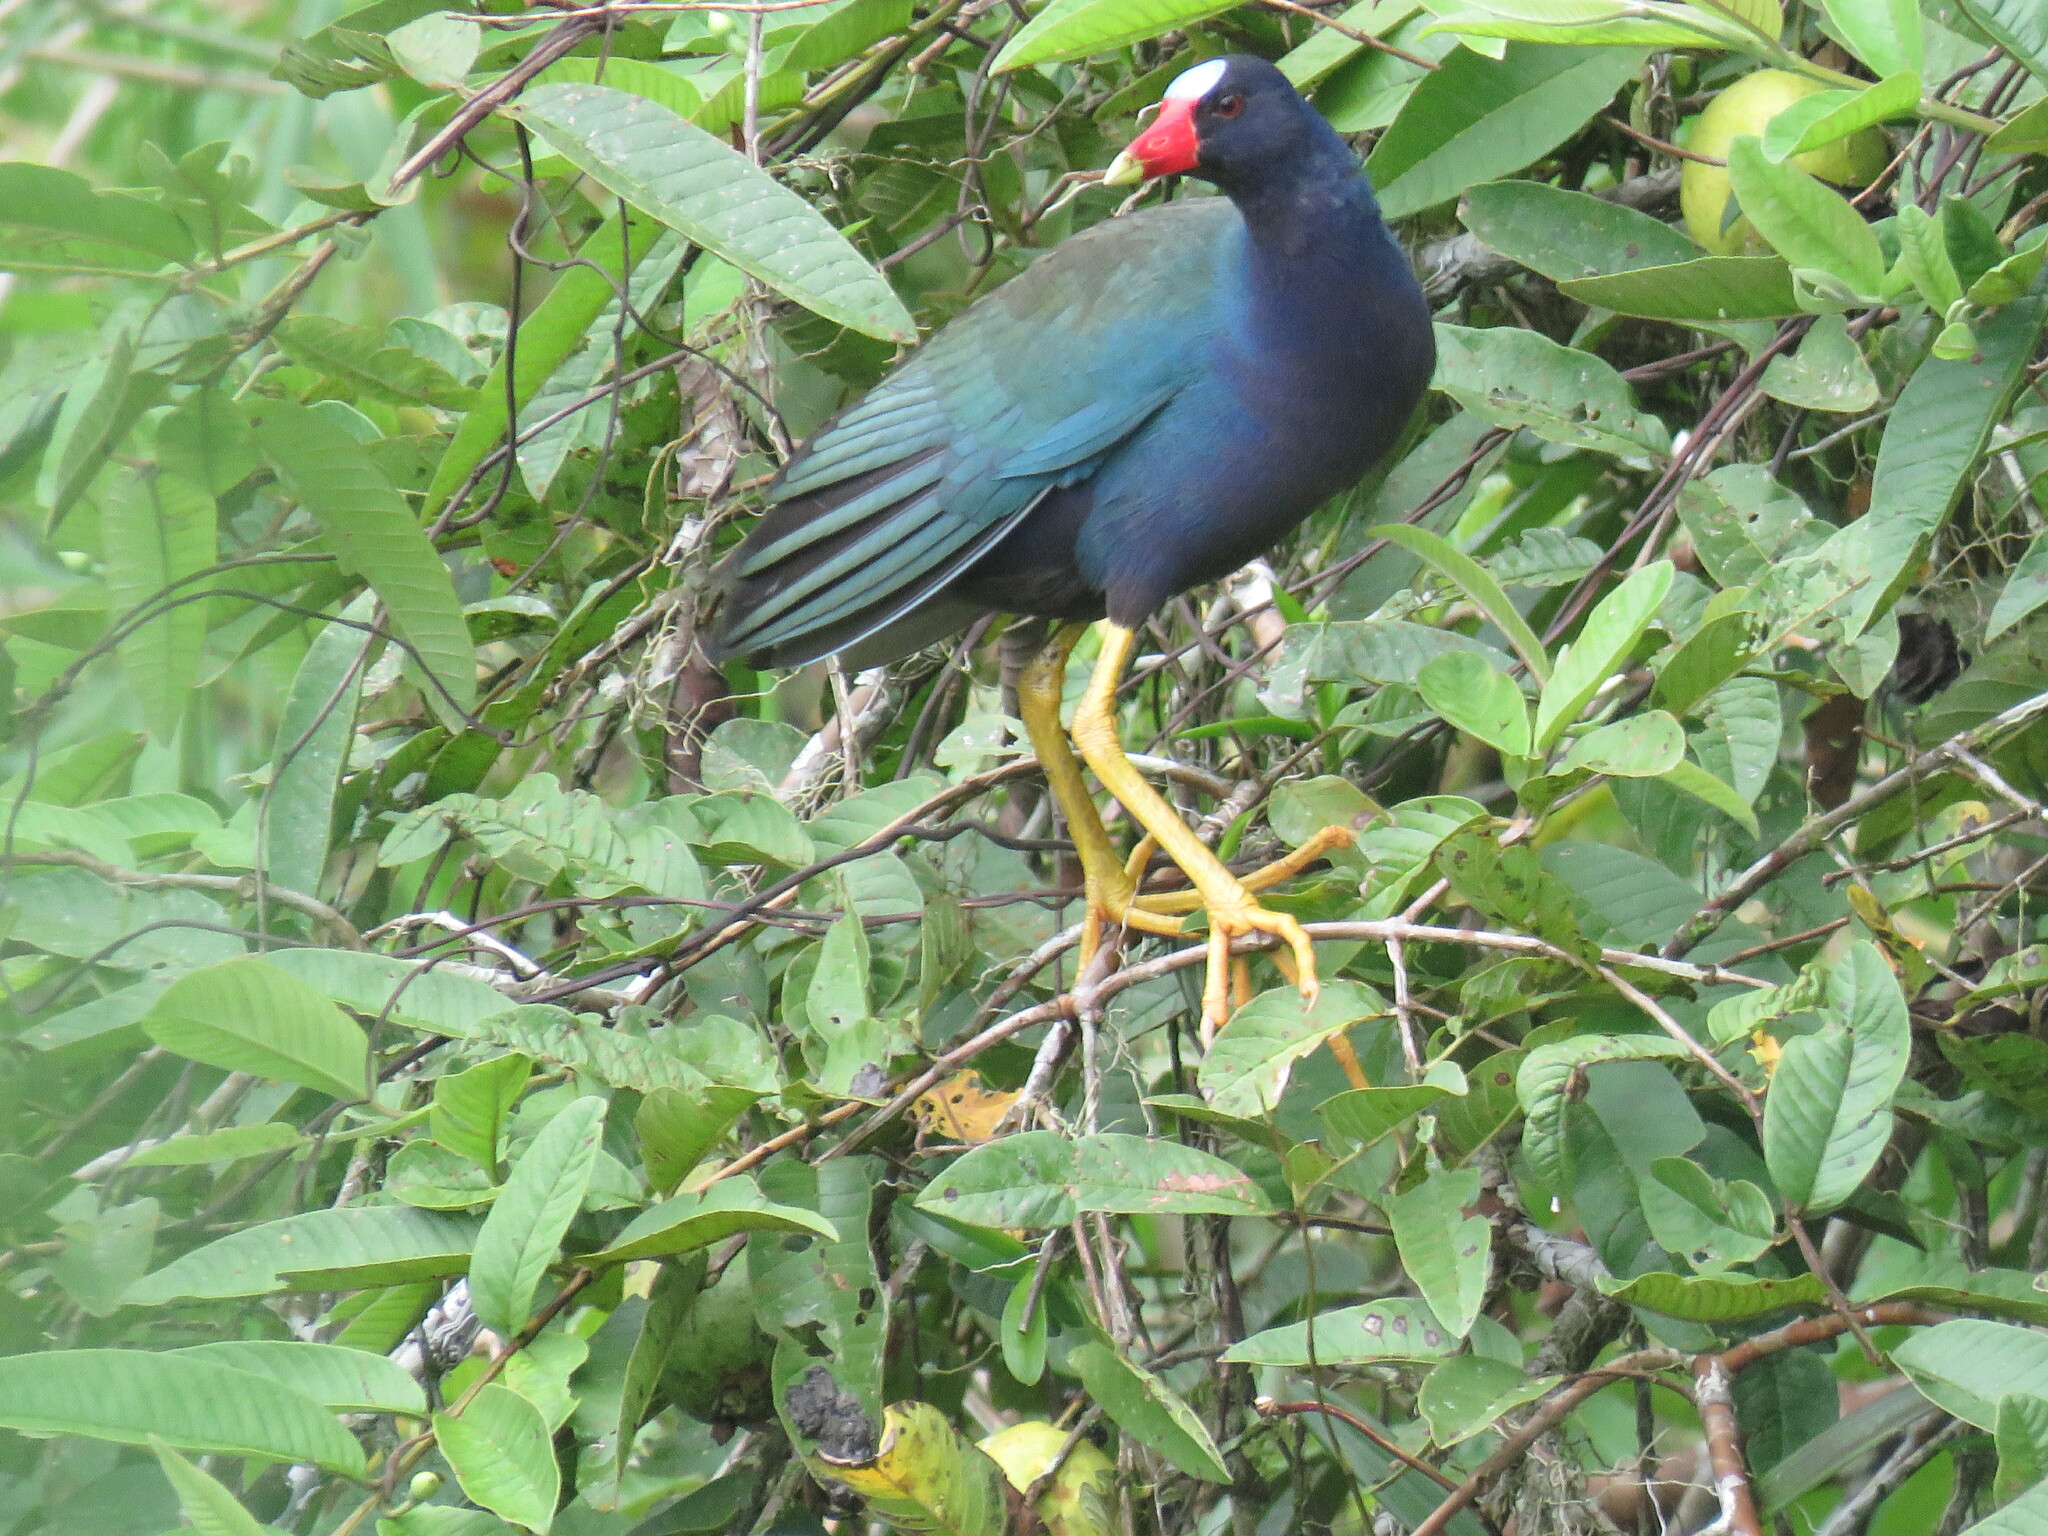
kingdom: Animalia
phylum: Chordata
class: Aves
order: Gruiformes
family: Rallidae
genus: Porphyrio
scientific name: Porphyrio martinica
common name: Purple gallinule
